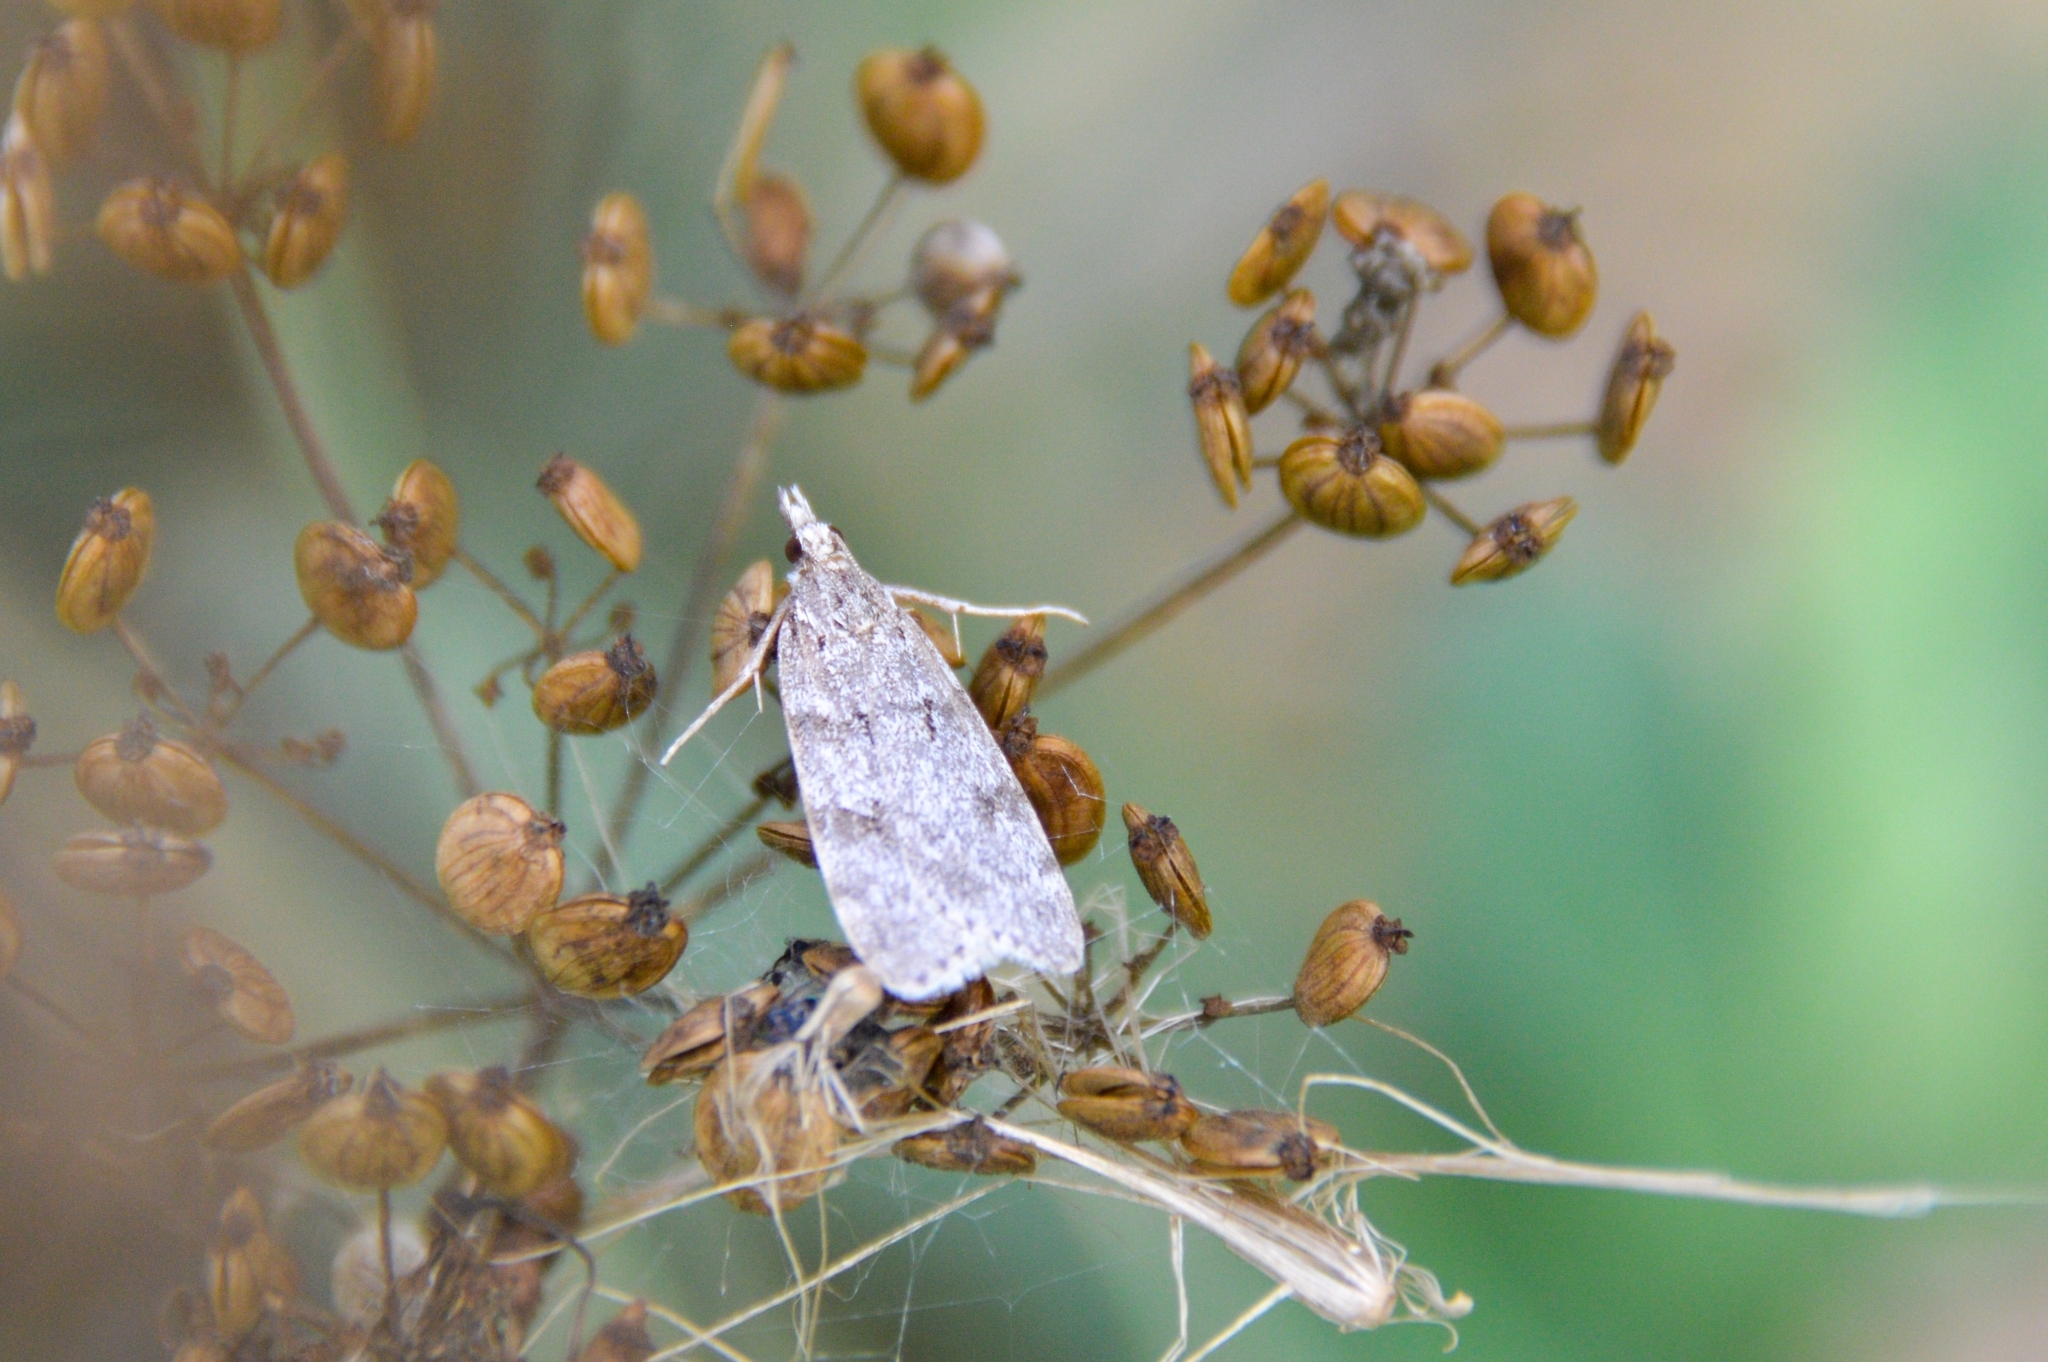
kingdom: Animalia
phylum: Arthropoda
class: Insecta
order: Lepidoptera
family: Crambidae
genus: Scoparia
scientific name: Scoparia cembrella
